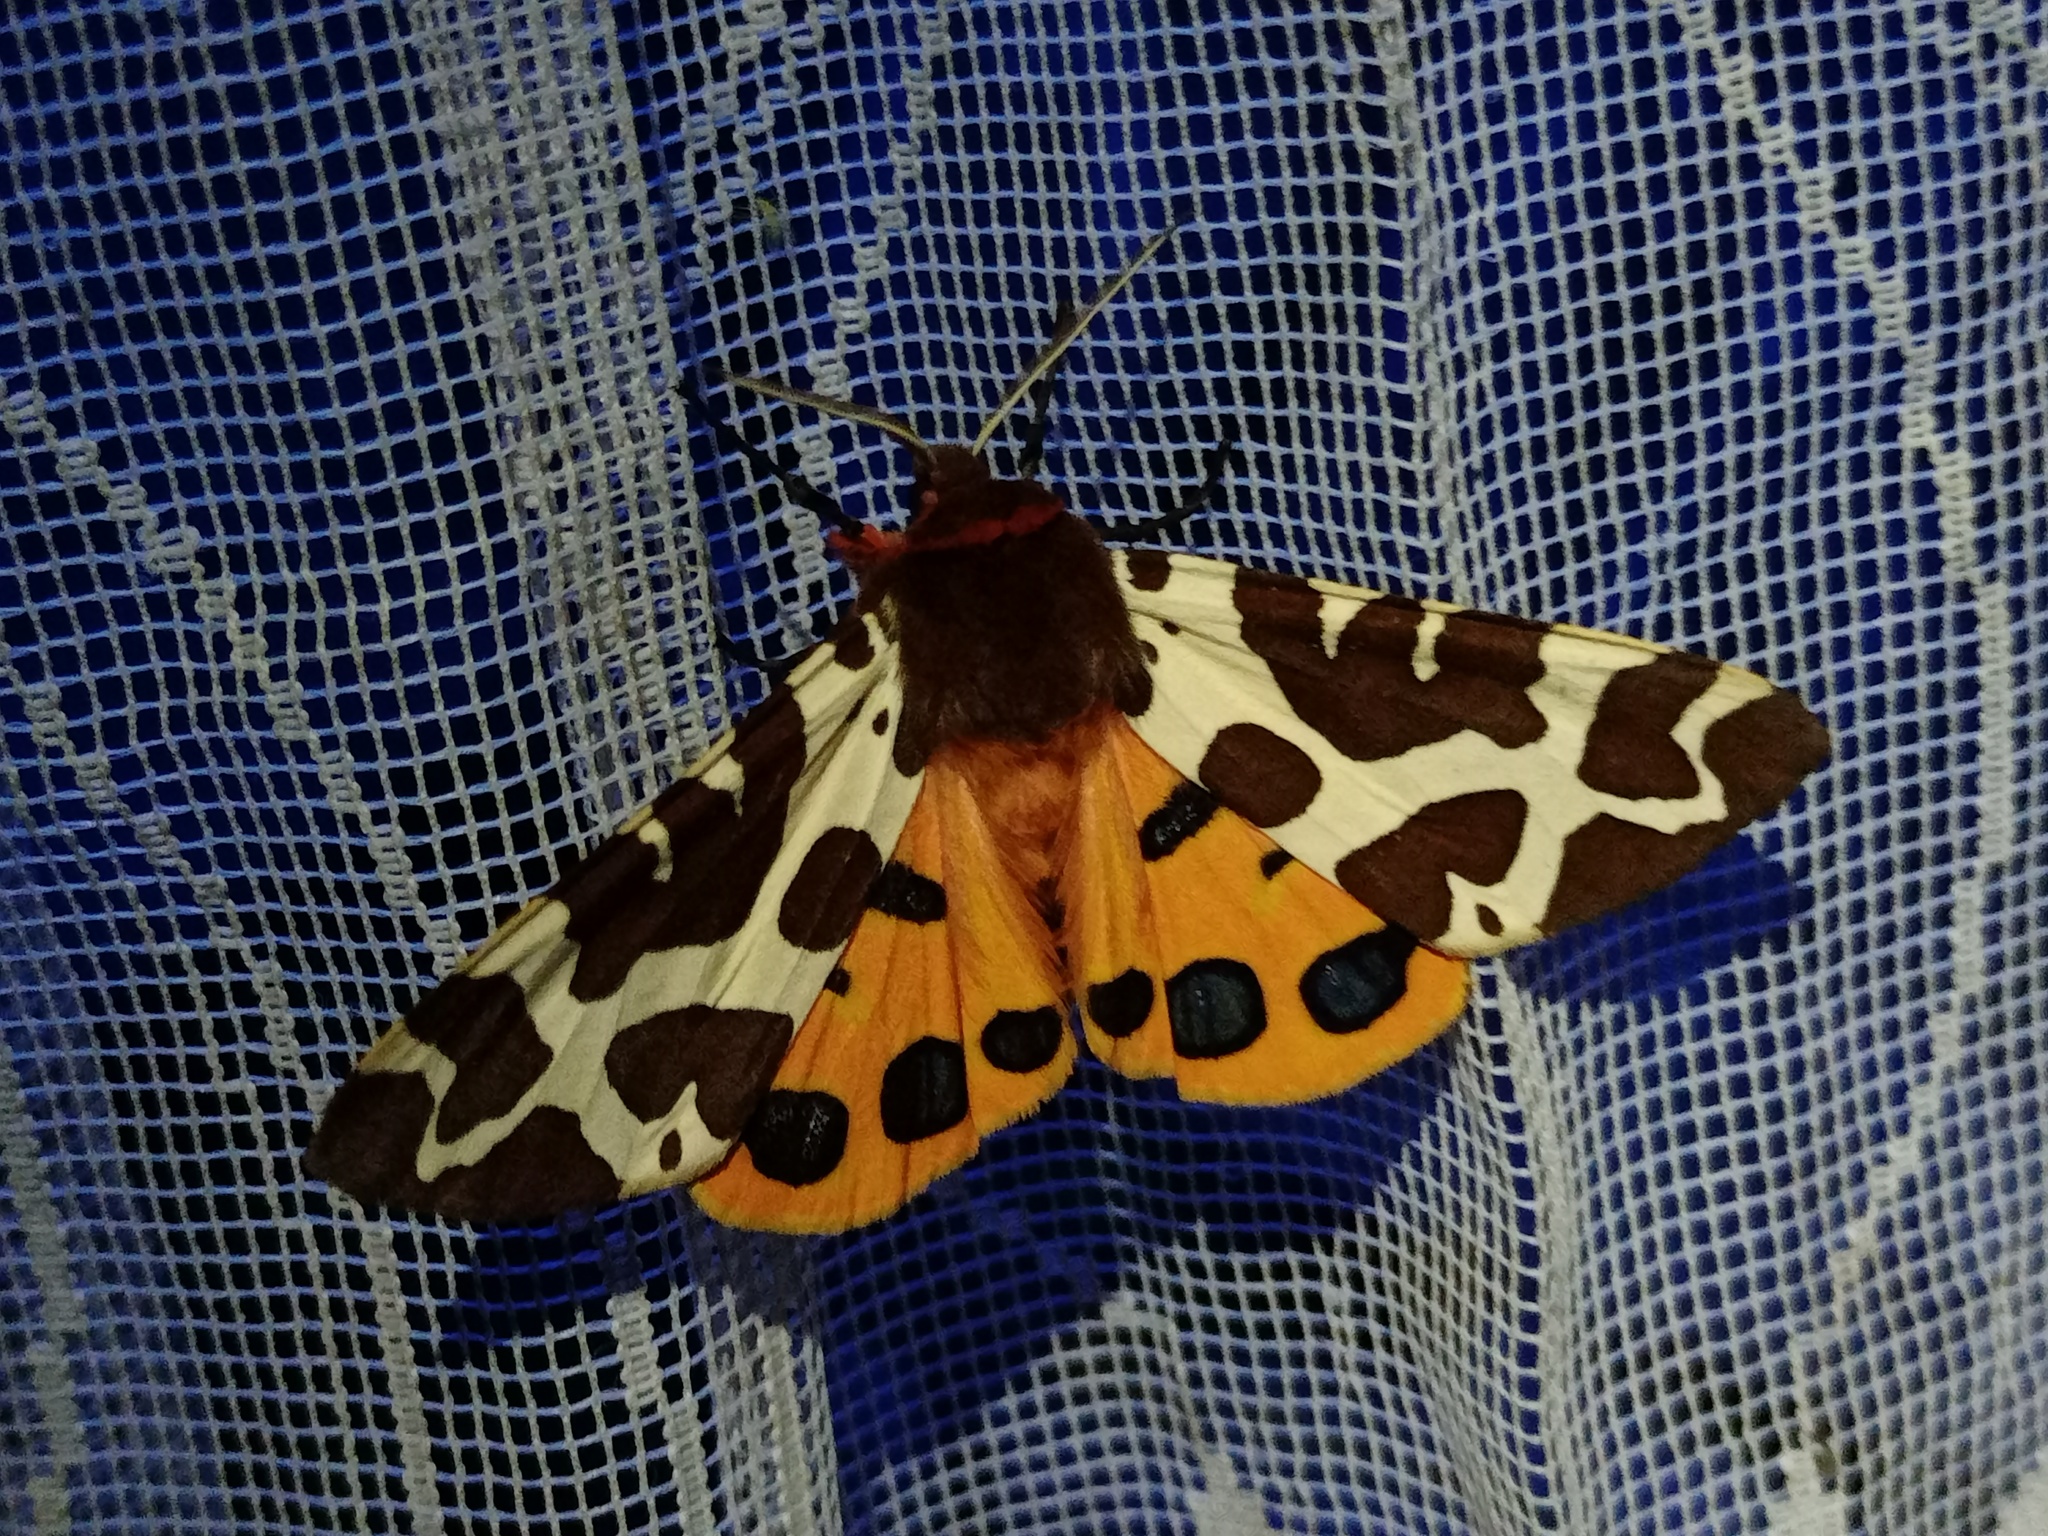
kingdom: Animalia
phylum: Arthropoda
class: Insecta
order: Lepidoptera
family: Erebidae
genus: Arctia
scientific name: Arctia caja
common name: Garden tiger
